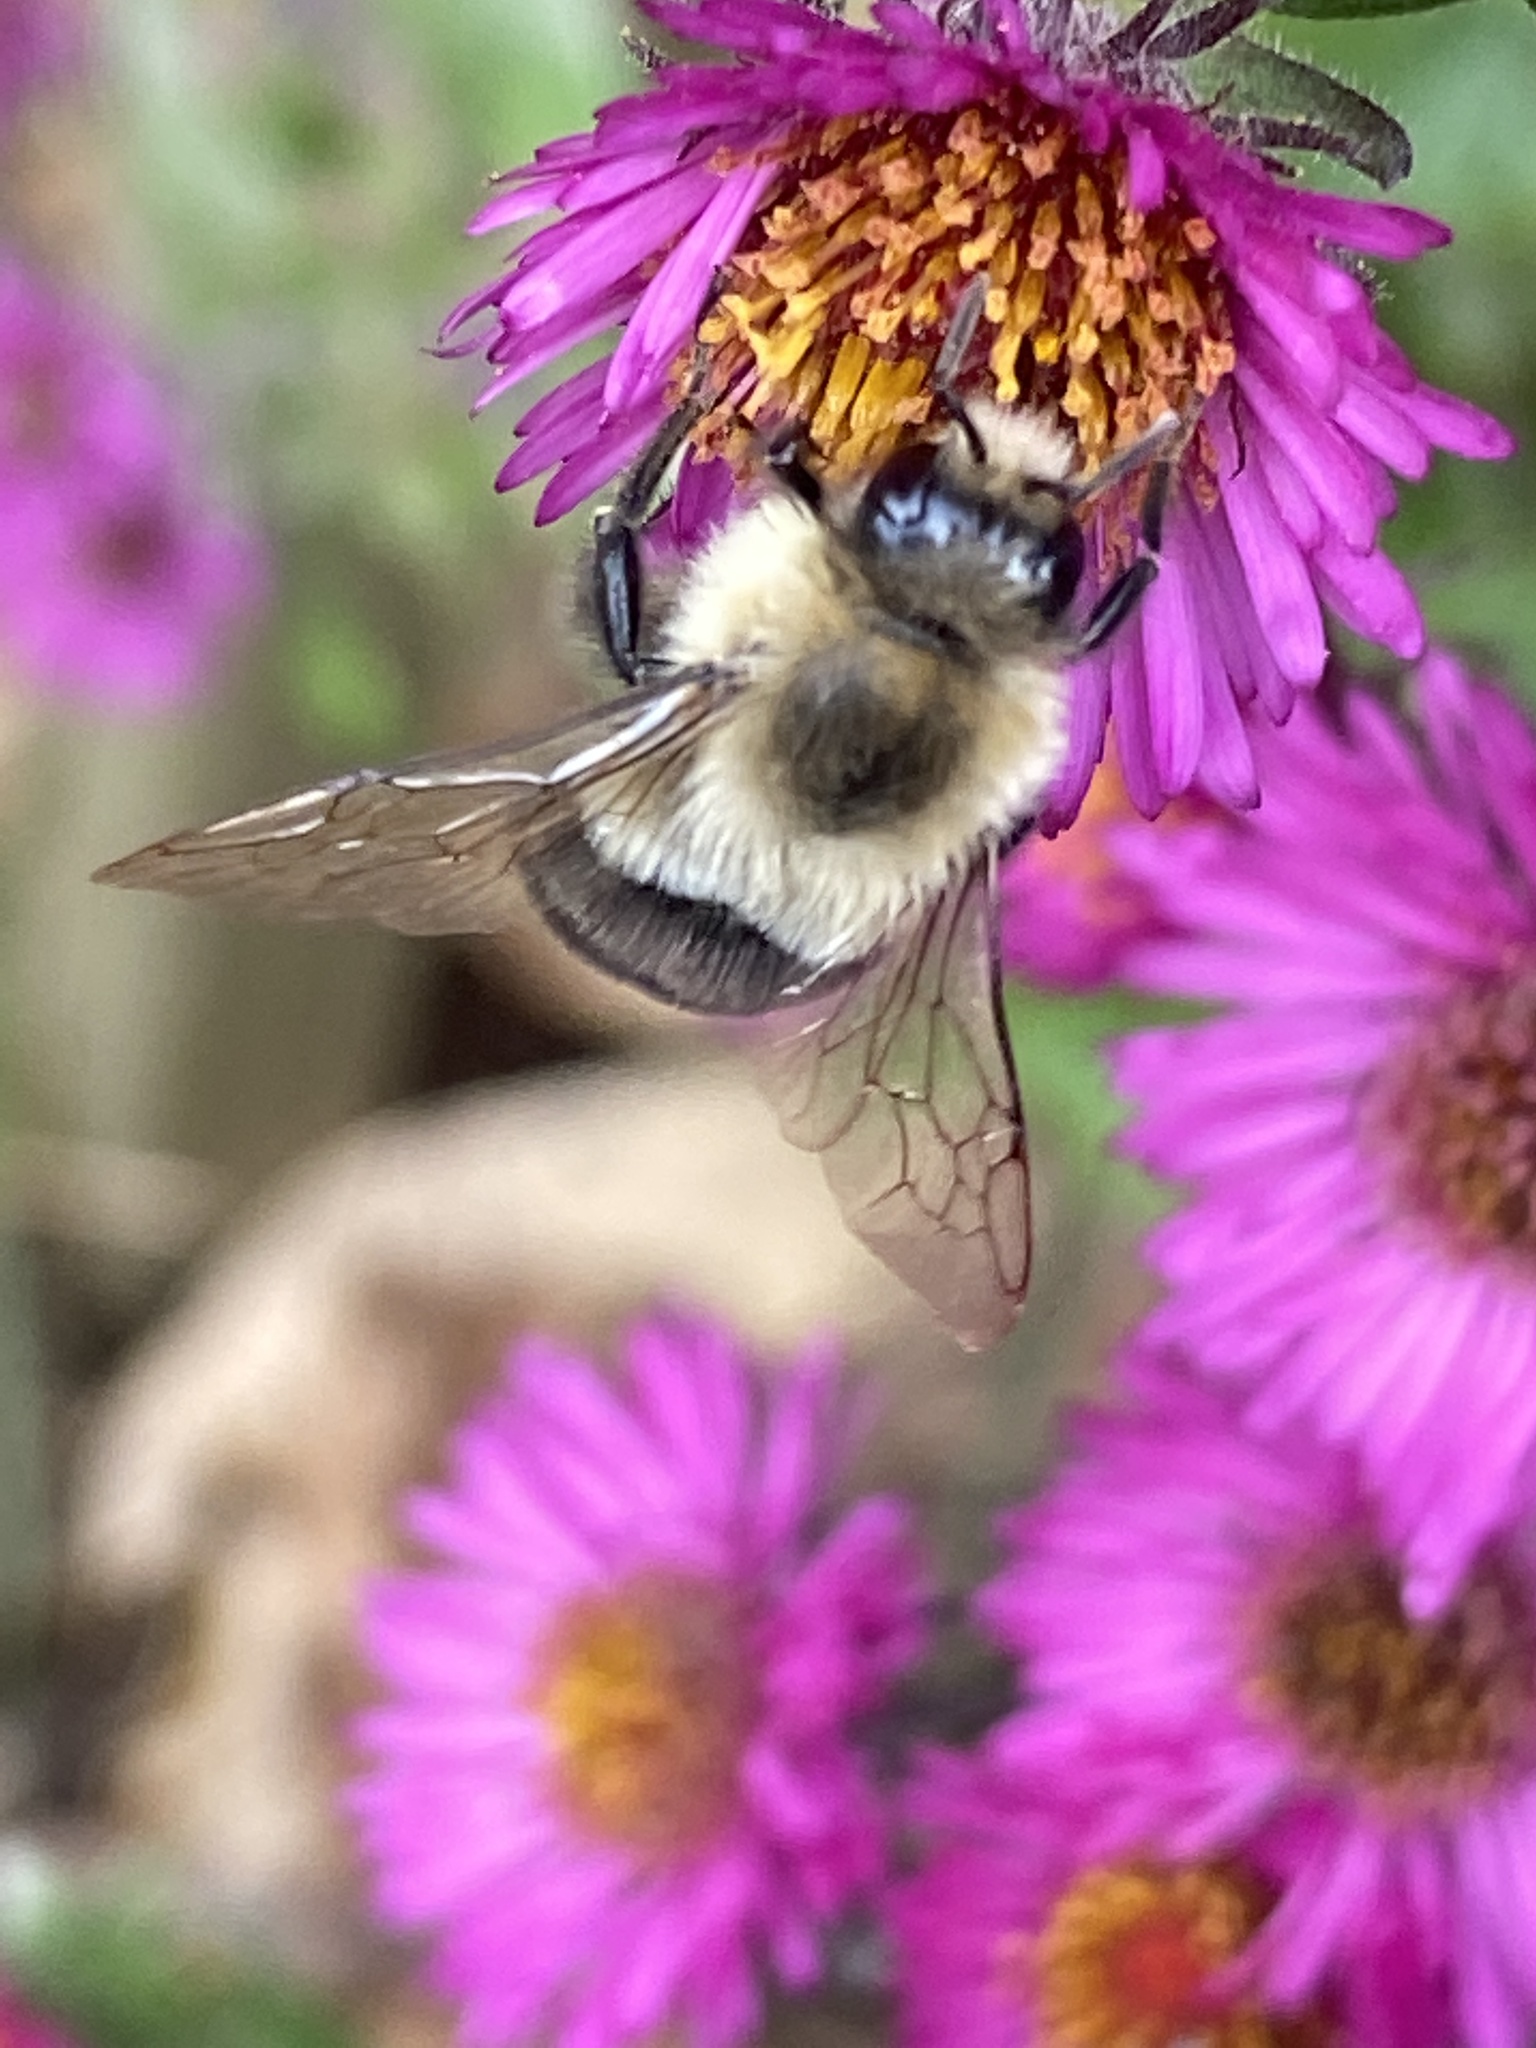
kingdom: Animalia
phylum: Arthropoda
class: Insecta
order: Hymenoptera
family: Apidae
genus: Bombus
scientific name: Bombus impatiens
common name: Common eastern bumble bee
